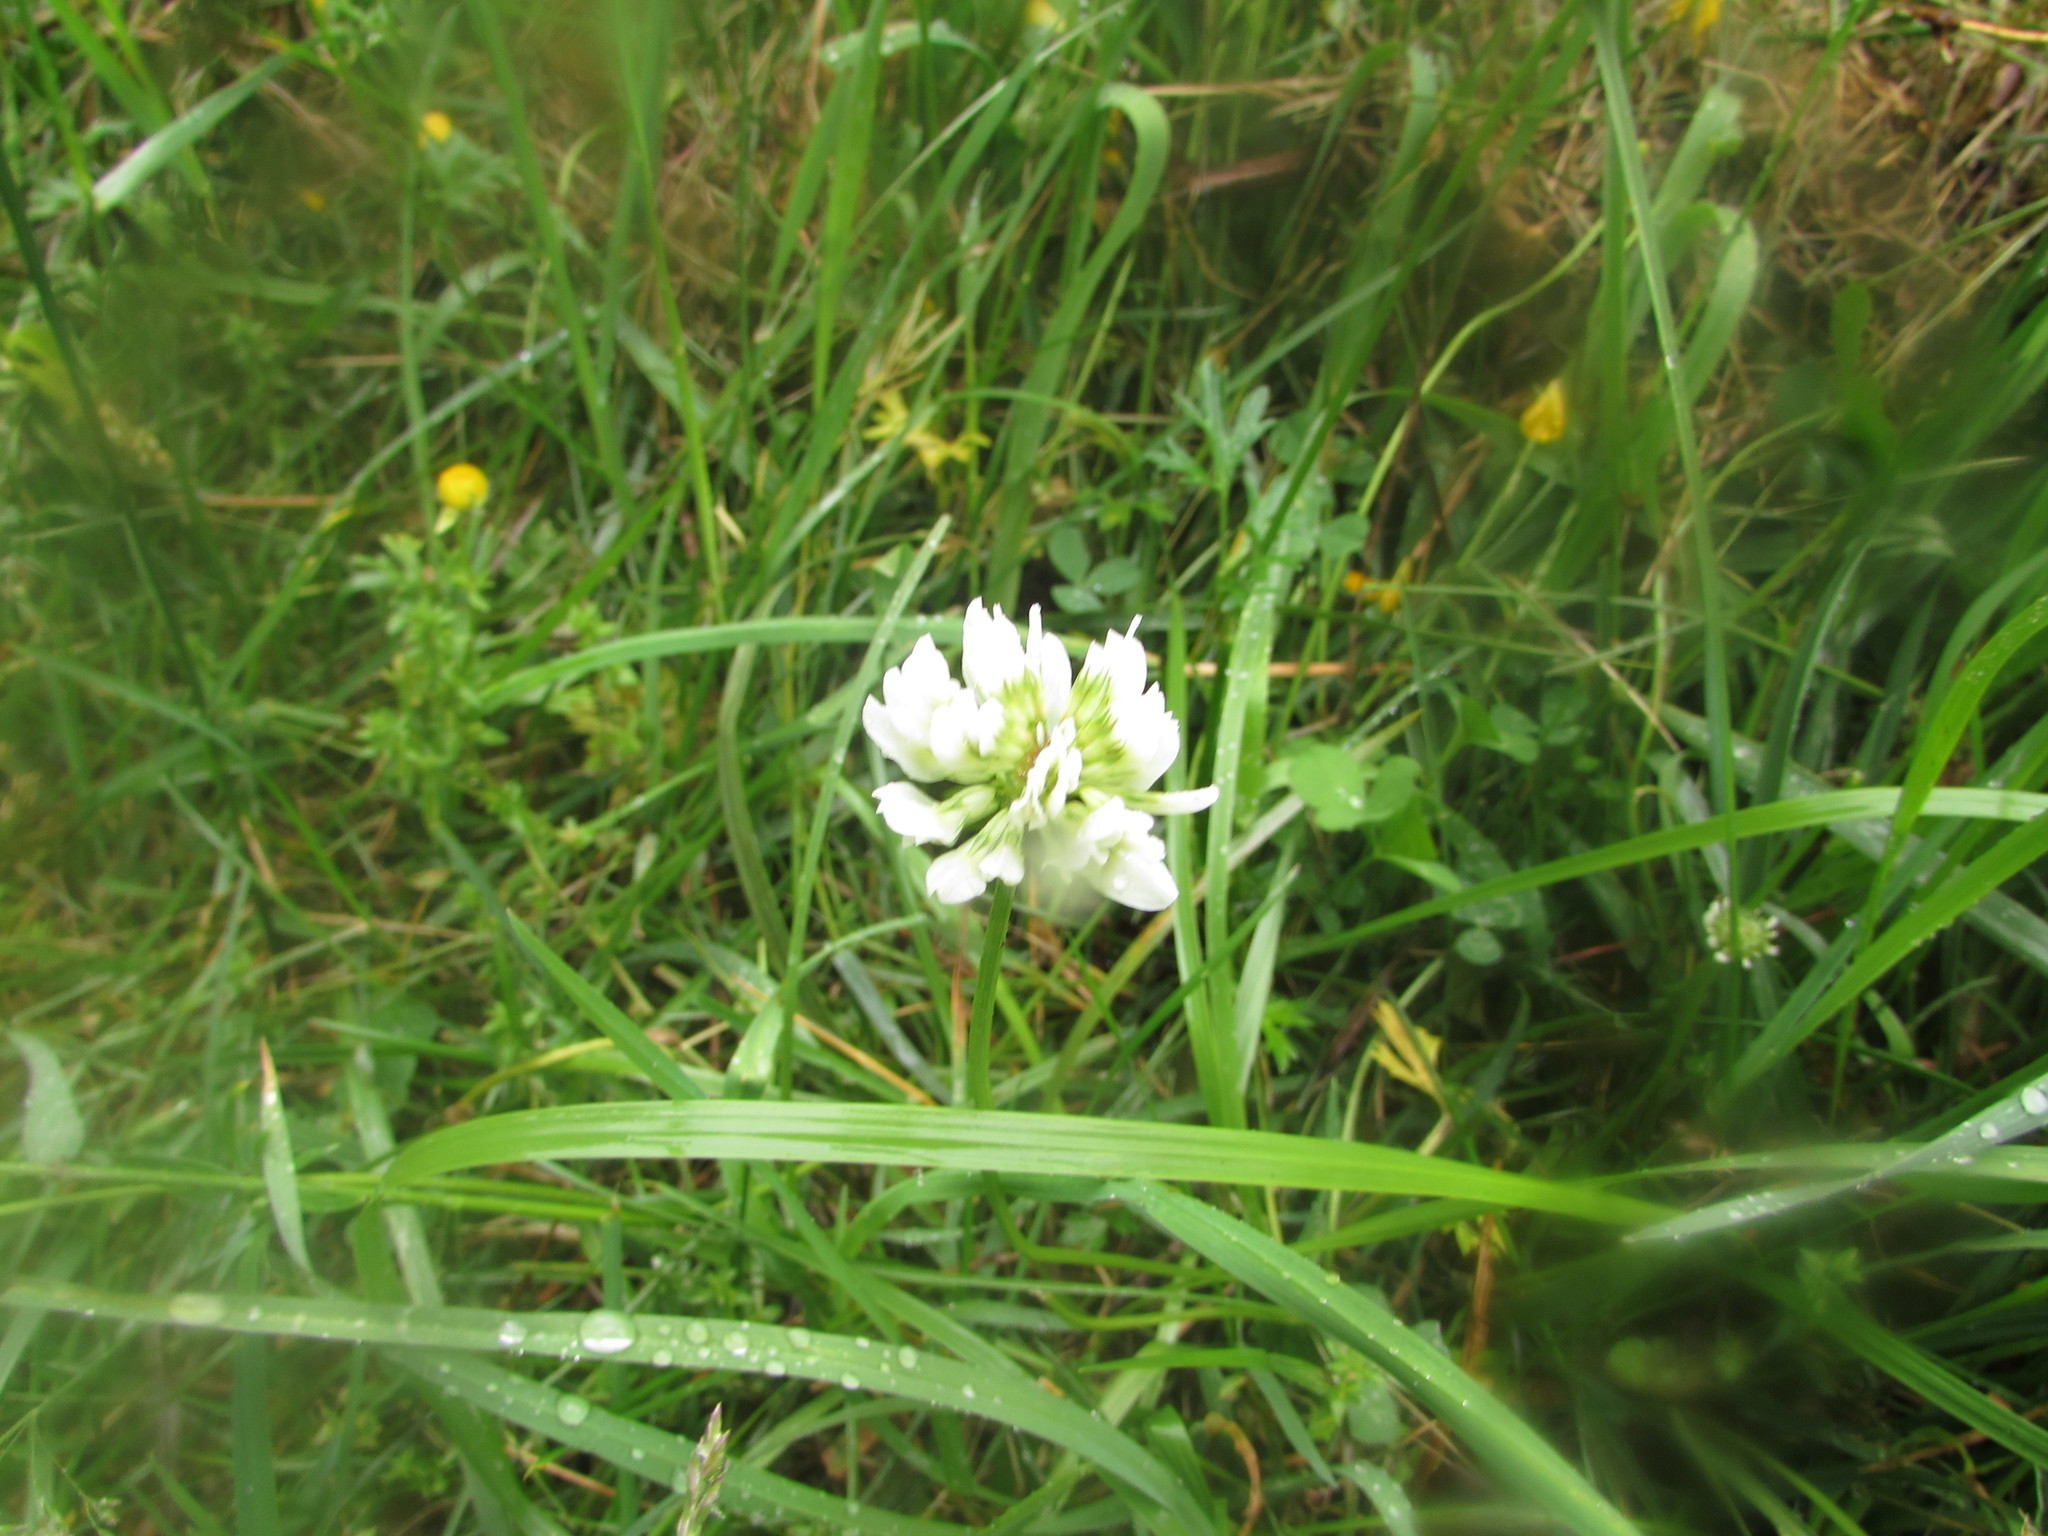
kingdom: Plantae
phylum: Tracheophyta
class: Magnoliopsida
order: Fabales
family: Fabaceae
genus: Trifolium
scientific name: Trifolium repens
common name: White clover
